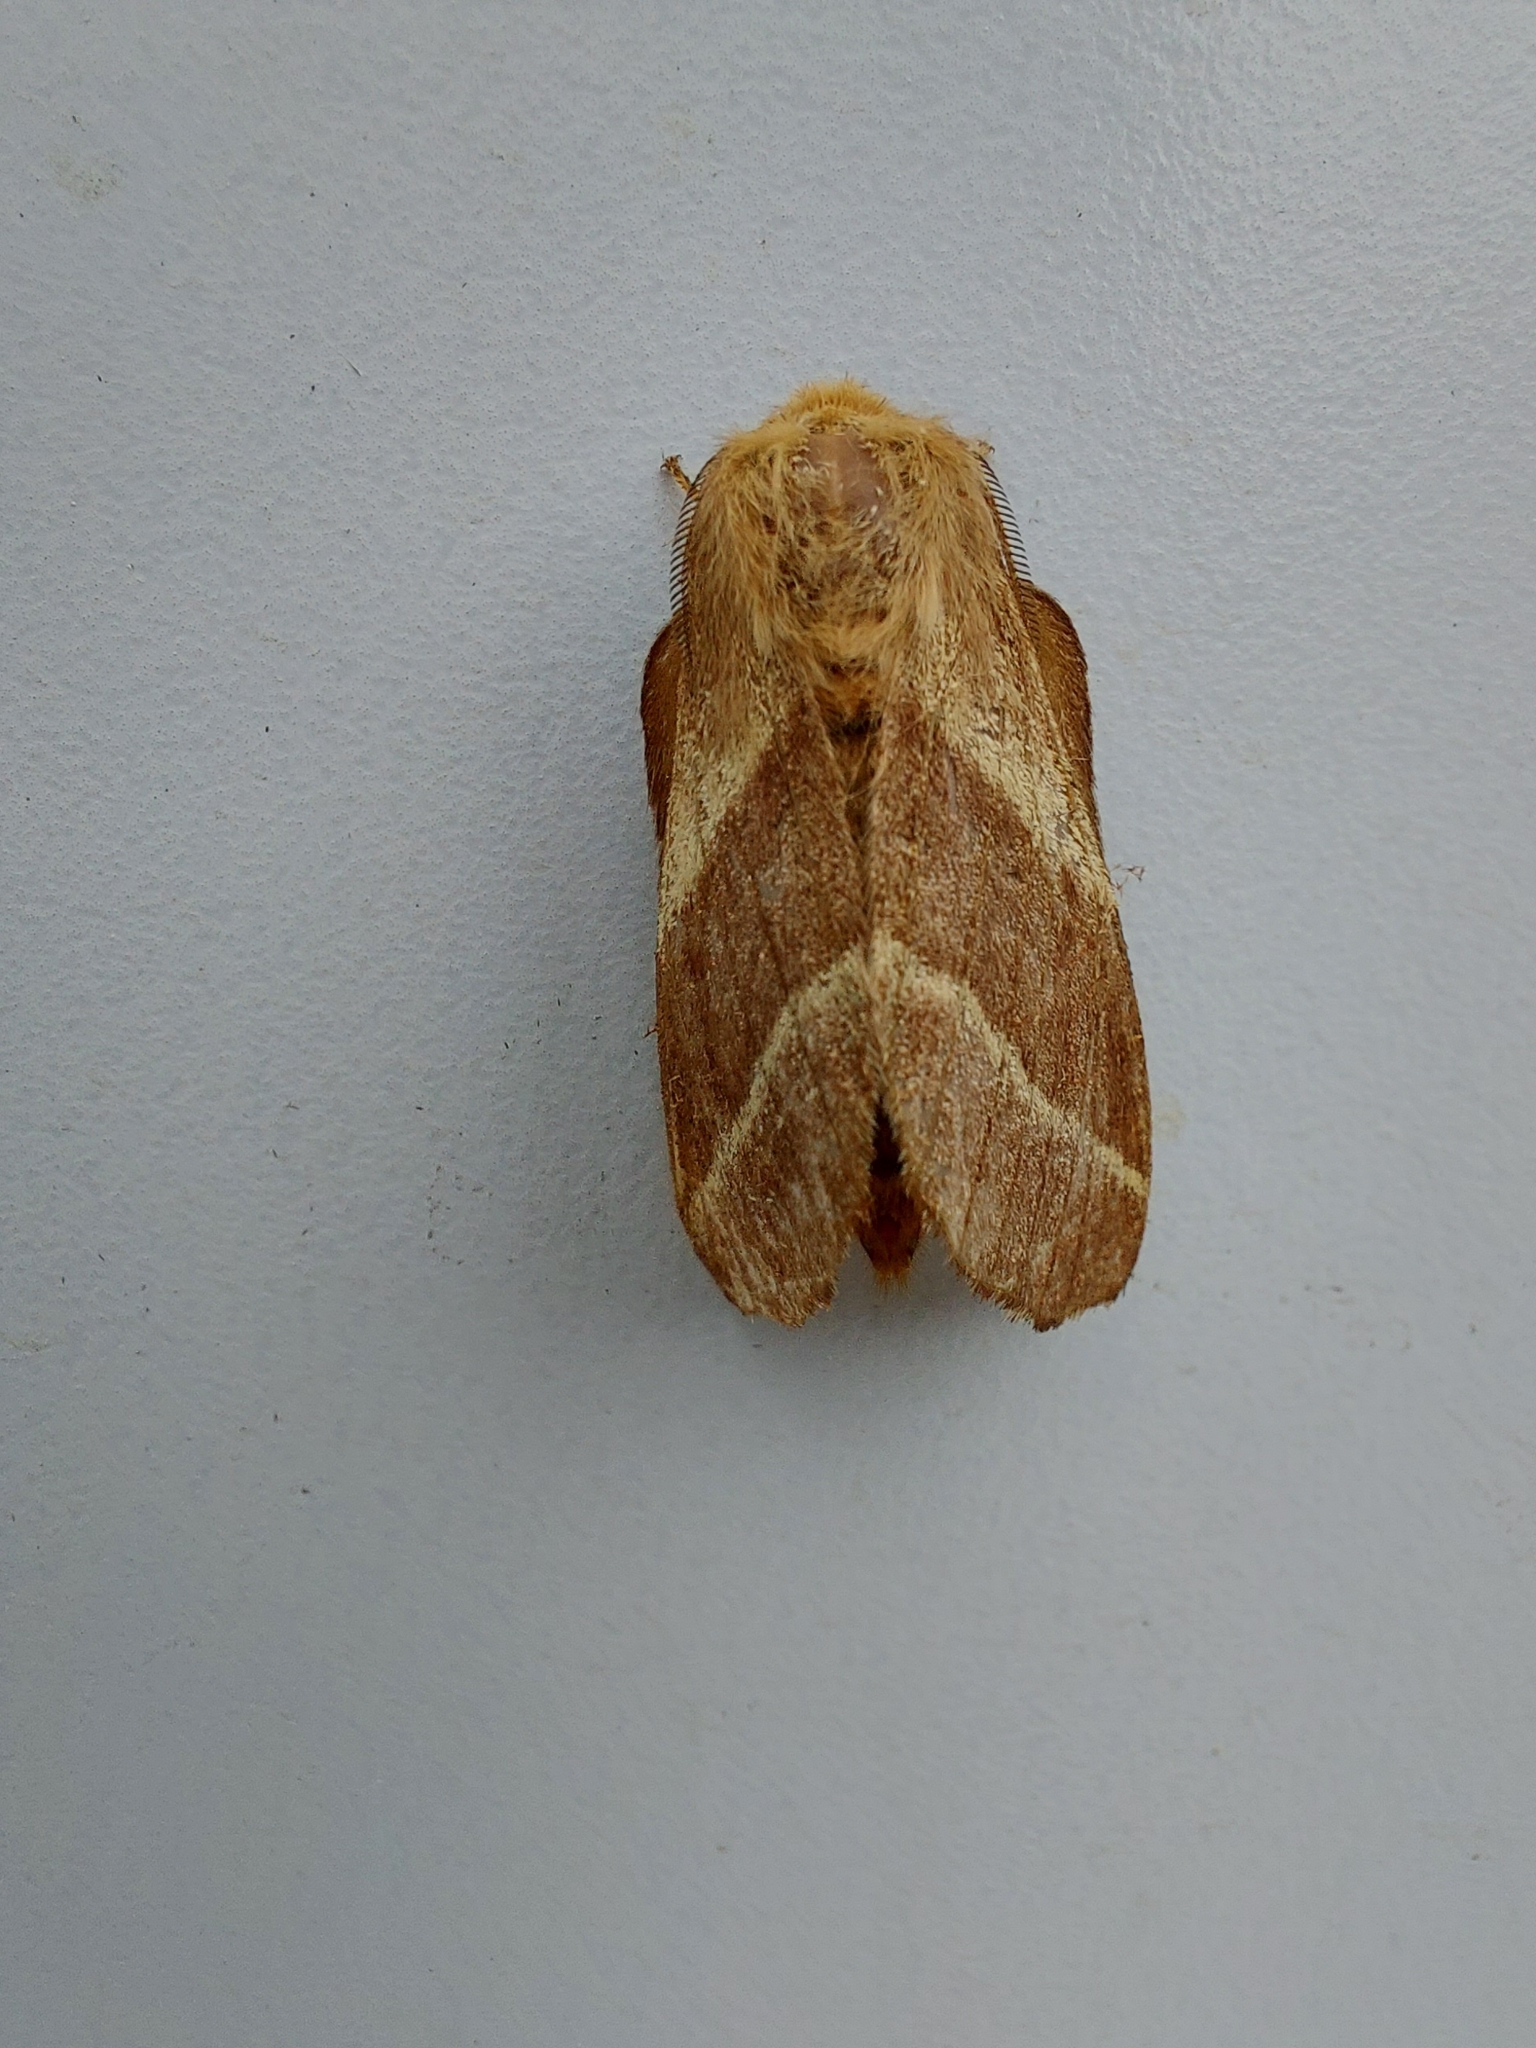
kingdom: Animalia
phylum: Arthropoda
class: Insecta
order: Lepidoptera
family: Lasiocampidae
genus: Malacosoma
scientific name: Malacosoma americana
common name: Eastern tent caterpillar moth
